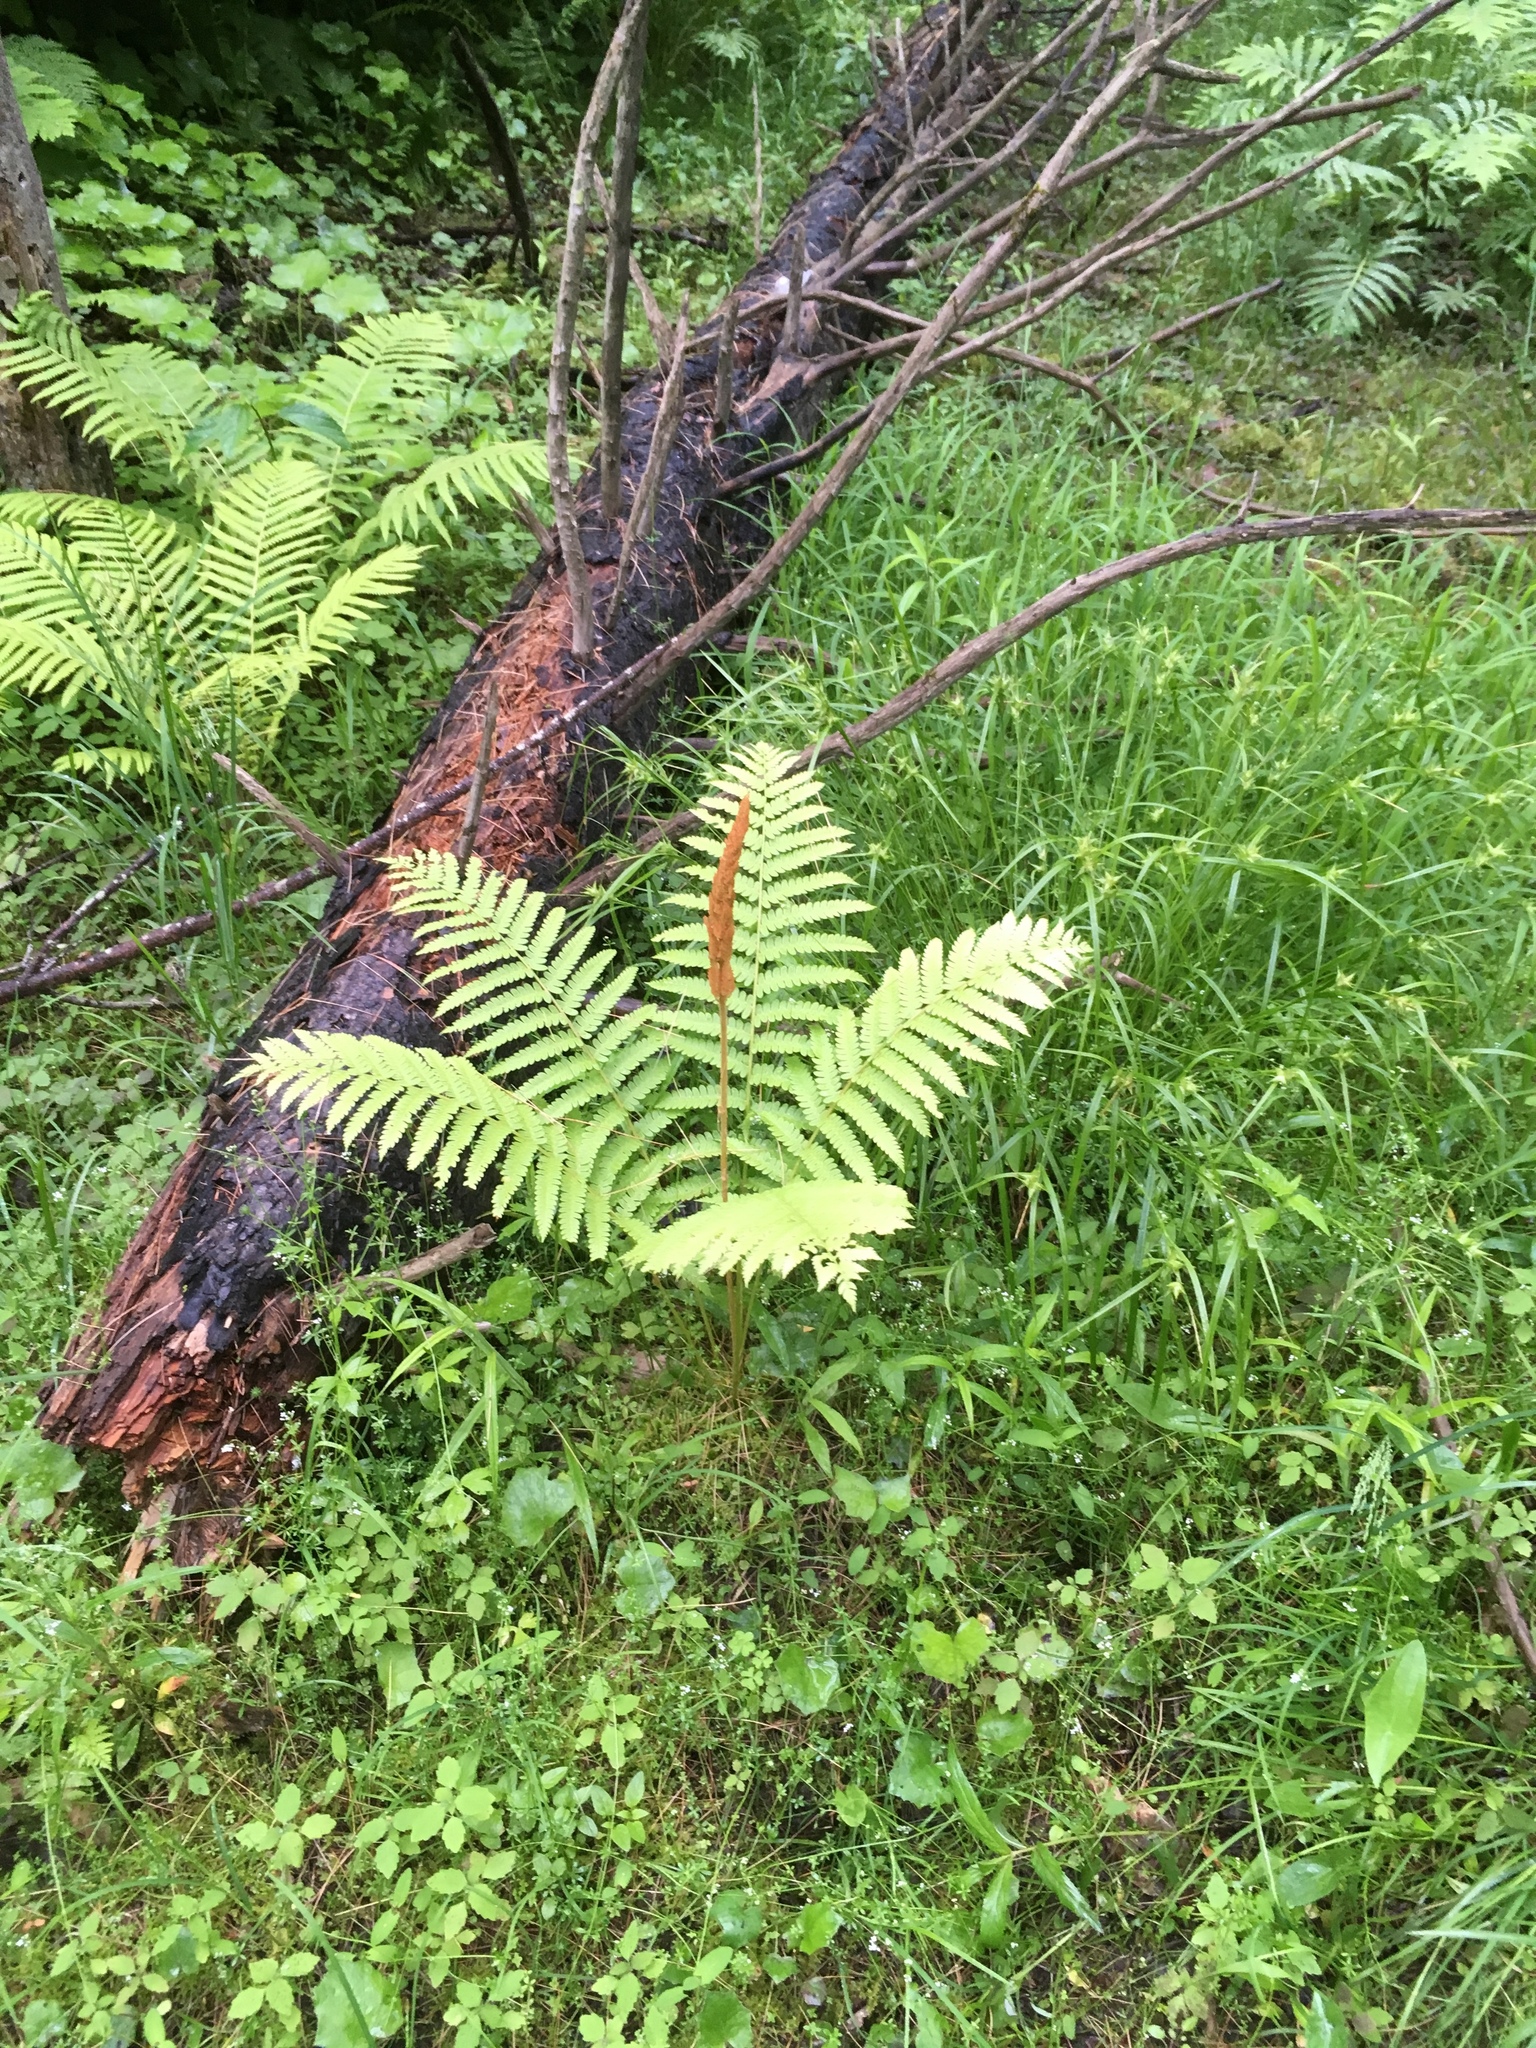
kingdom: Plantae
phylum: Tracheophyta
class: Polypodiopsida
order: Osmundales
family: Osmundaceae
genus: Osmundastrum
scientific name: Osmundastrum cinnamomeum
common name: Cinnamon fern
